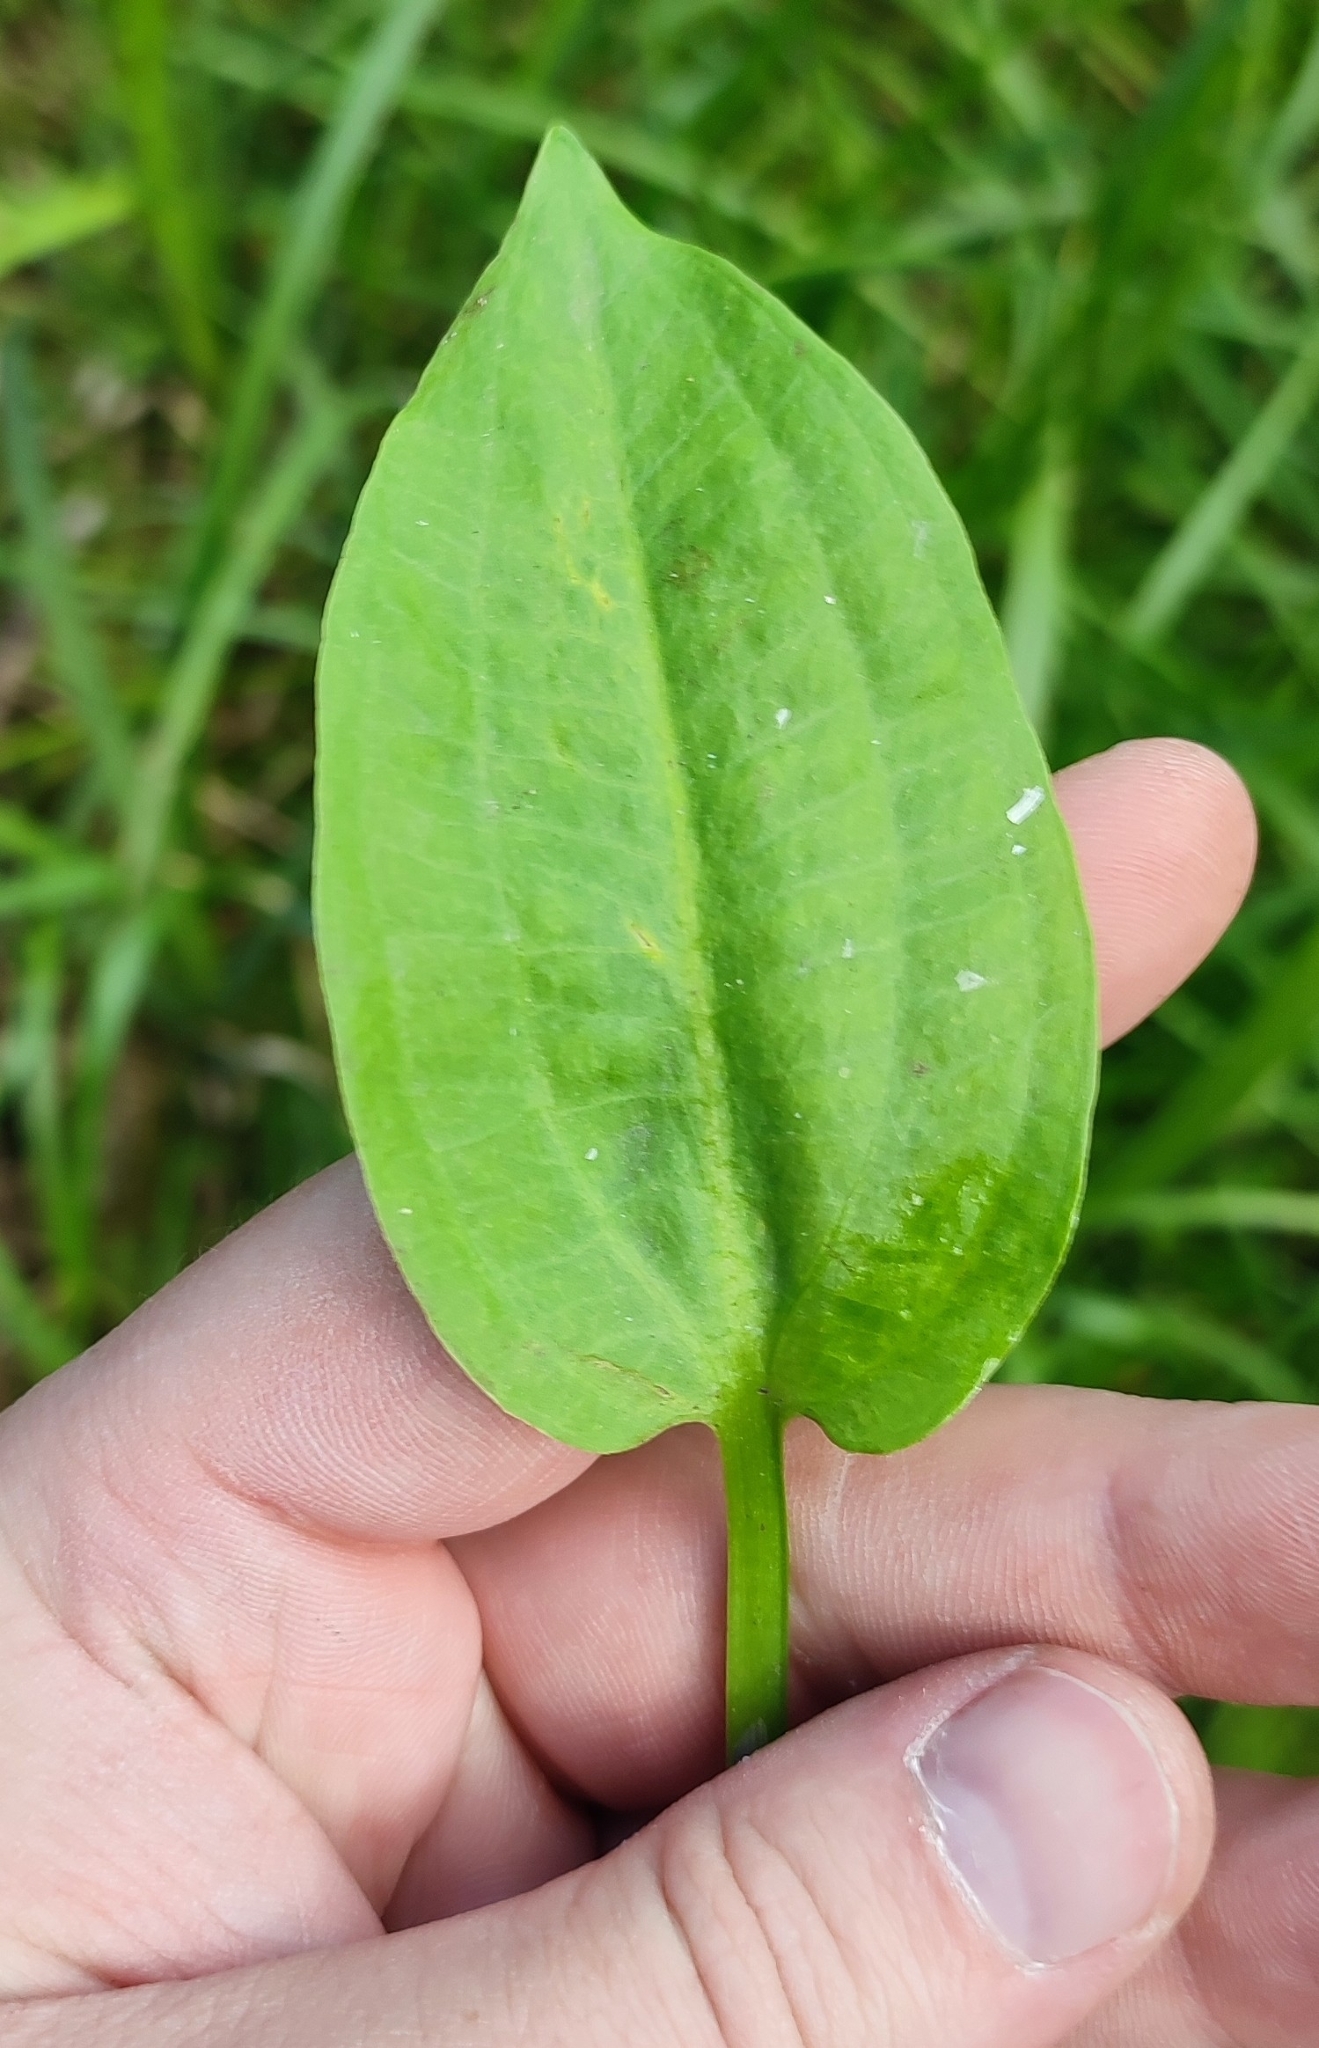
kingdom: Plantae
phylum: Tracheophyta
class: Liliopsida
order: Alismatales
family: Alismataceae
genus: Alisma
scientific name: Alisma plantago-aquatica
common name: Water-plantain
